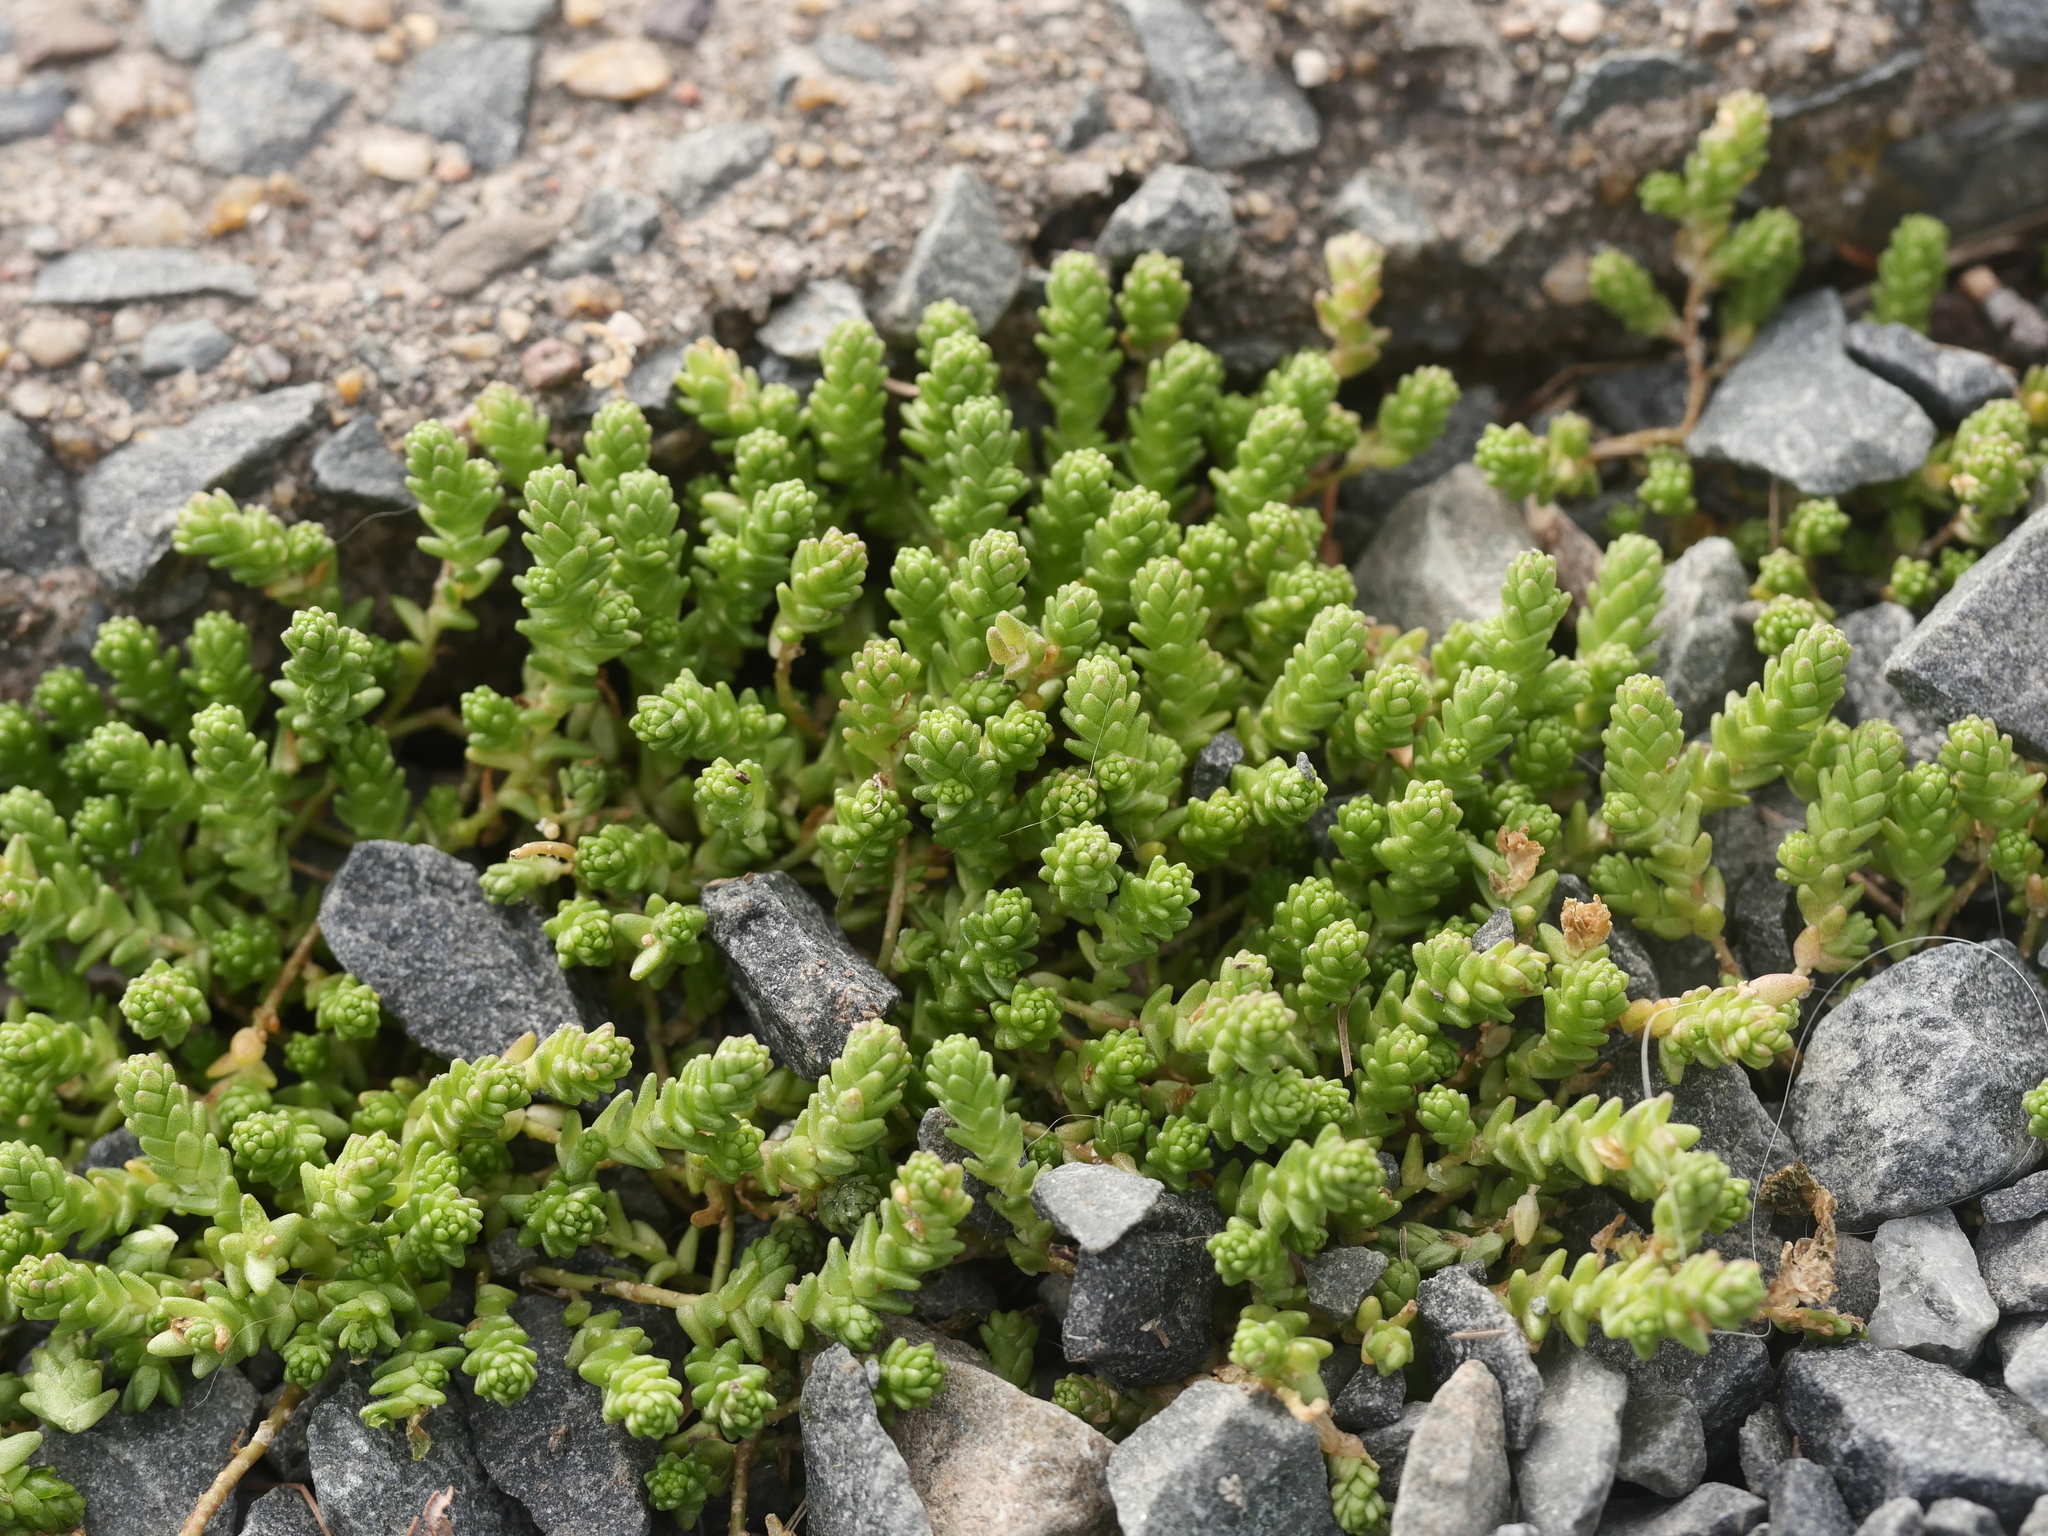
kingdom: Plantae
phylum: Tracheophyta
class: Magnoliopsida
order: Saxifragales
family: Crassulaceae
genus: Sedum
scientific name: Sedum acre
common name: Biting stonecrop
